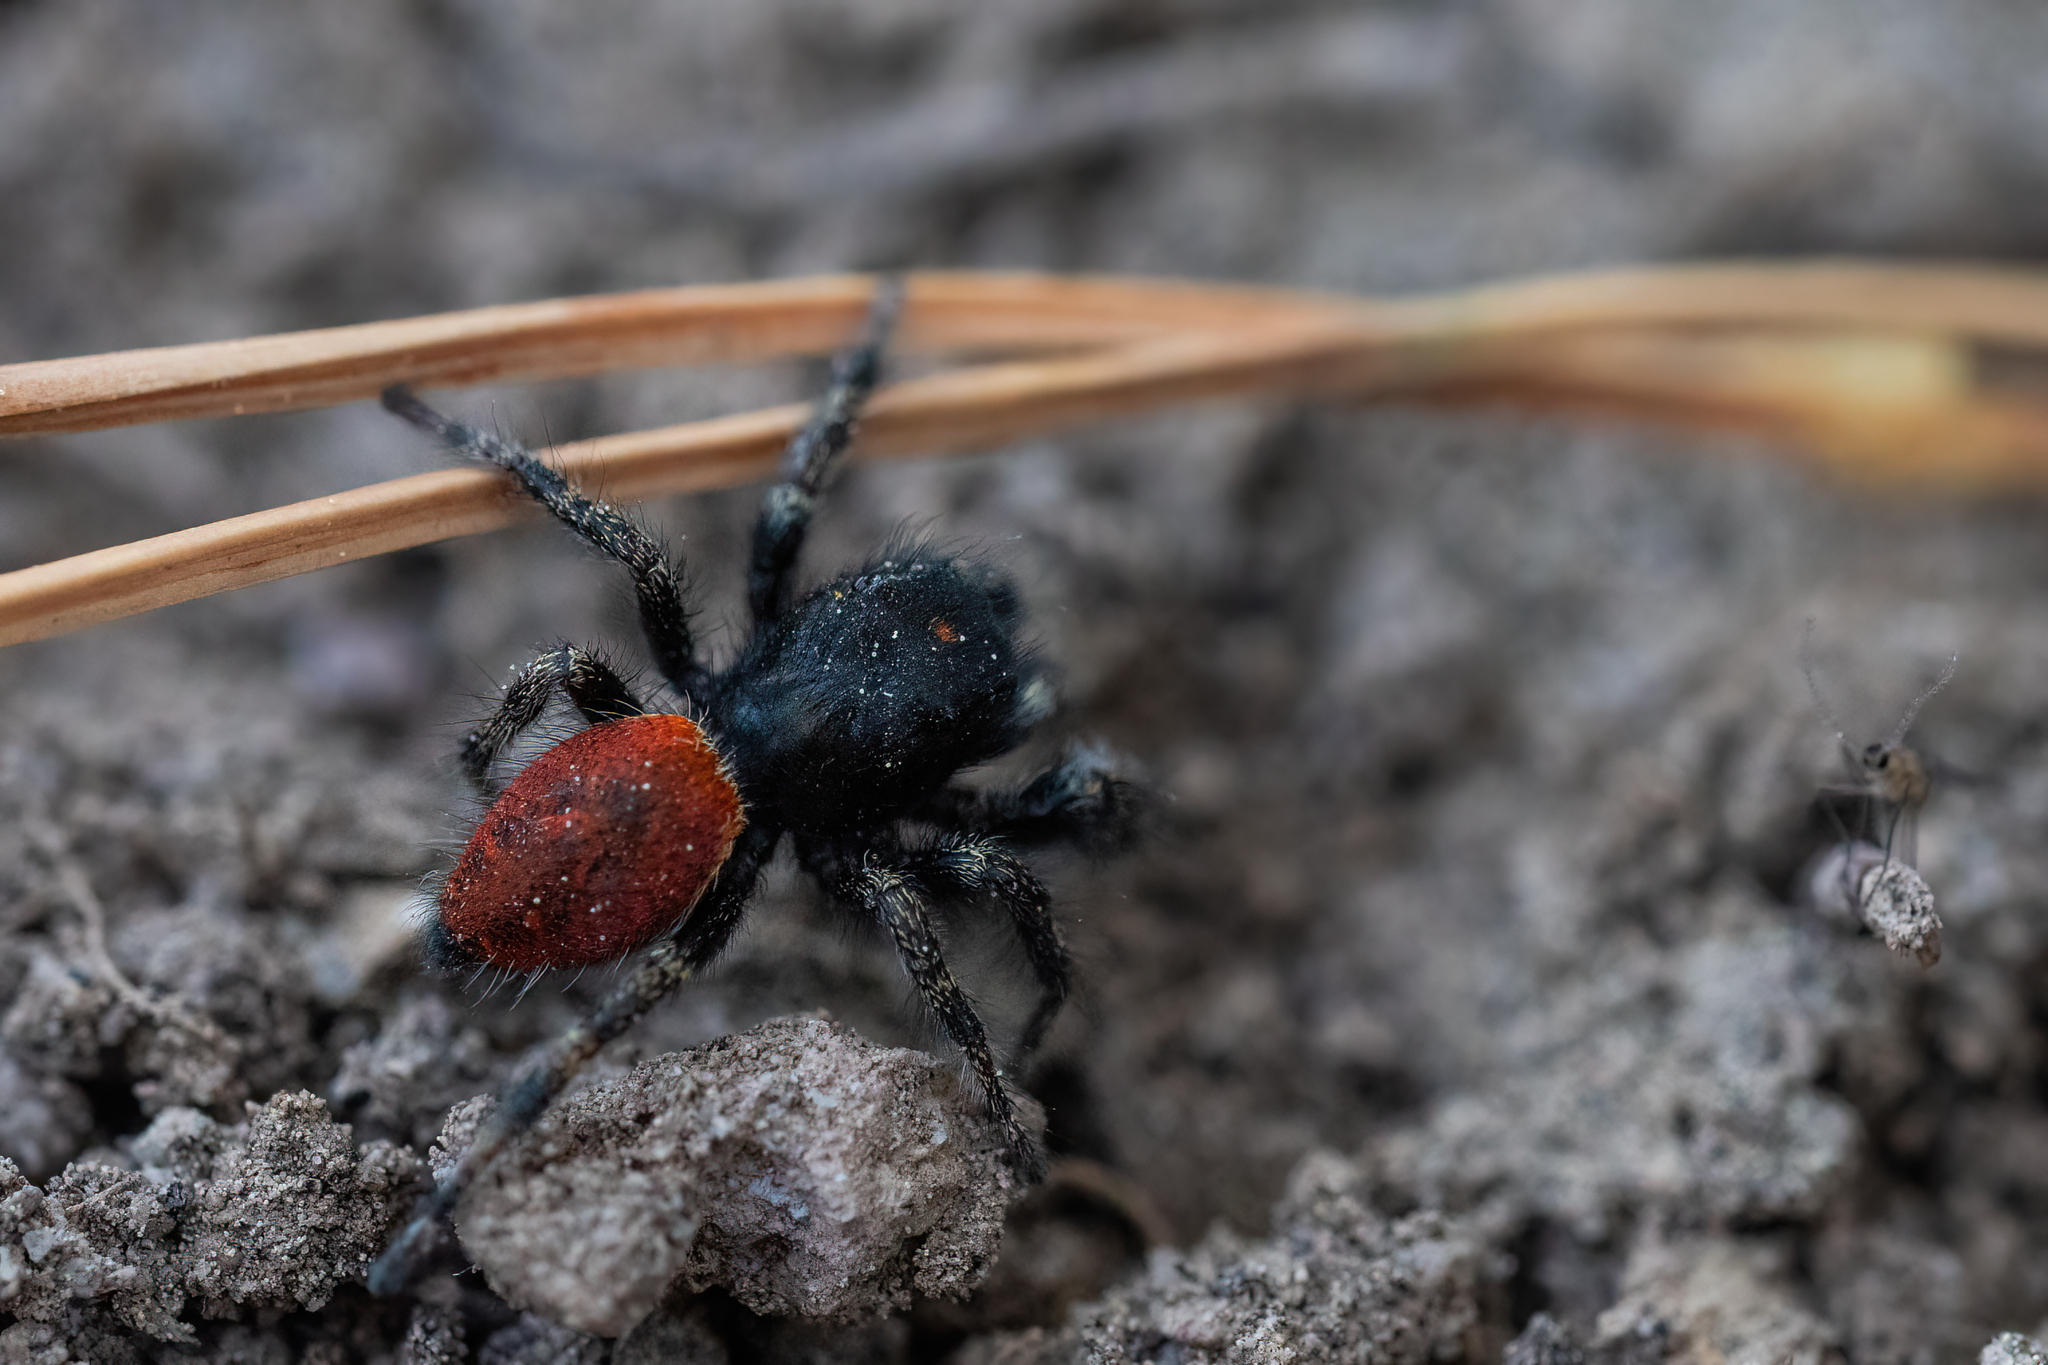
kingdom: Animalia
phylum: Arthropoda
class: Arachnida
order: Araneae
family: Salticidae
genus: Phidippus
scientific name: Phidippus johnsoni
